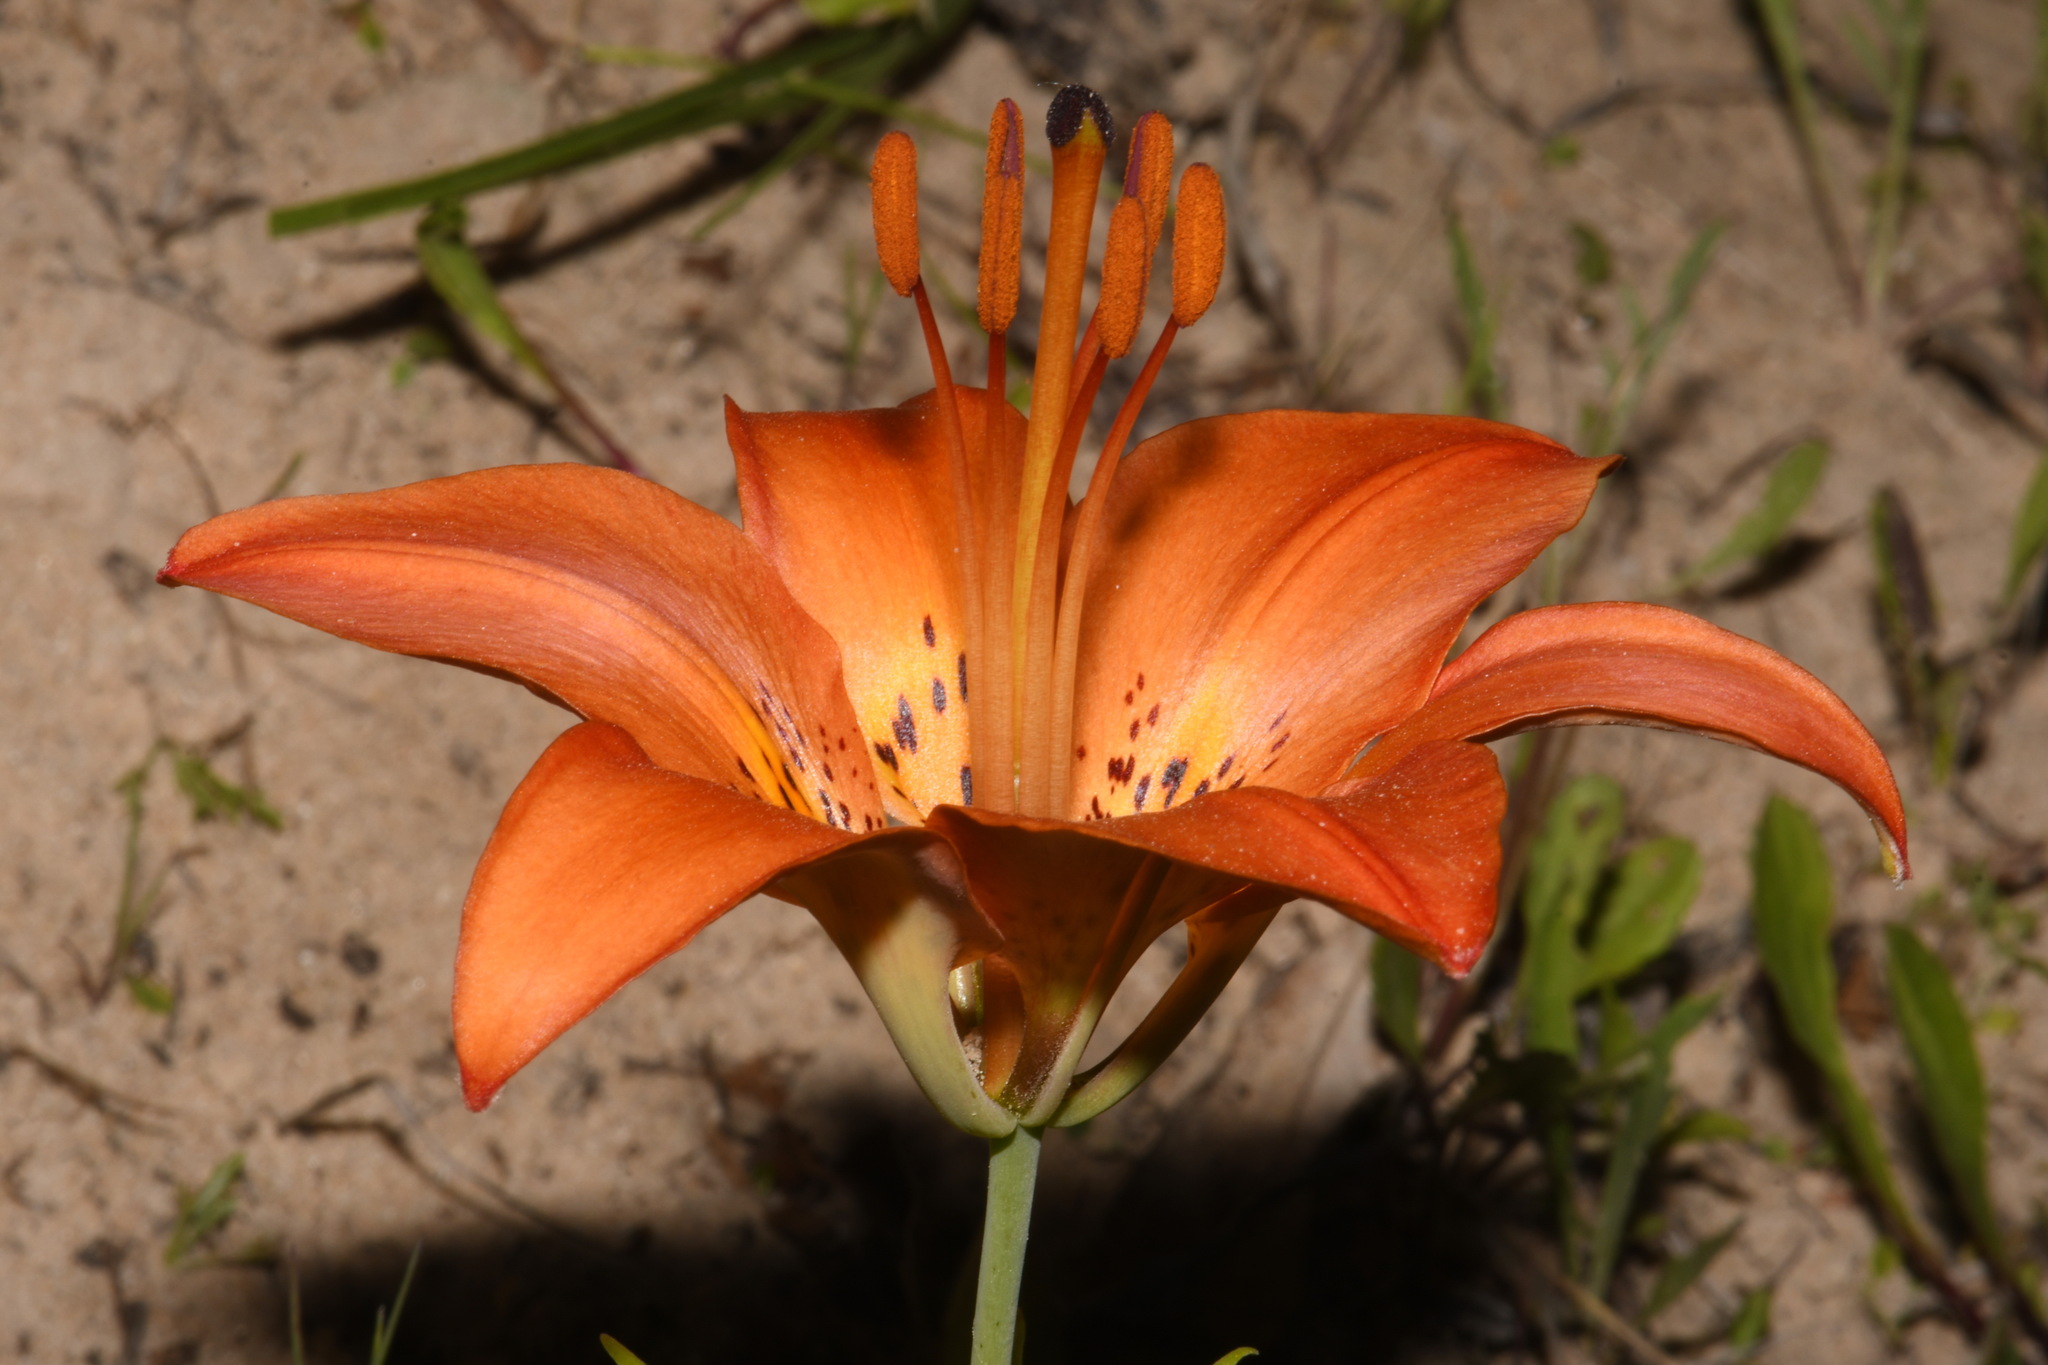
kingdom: Plantae
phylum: Tracheophyta
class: Liliopsida
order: Liliales
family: Liliaceae
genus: Lilium
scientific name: Lilium philadelphicum
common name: Red lily
